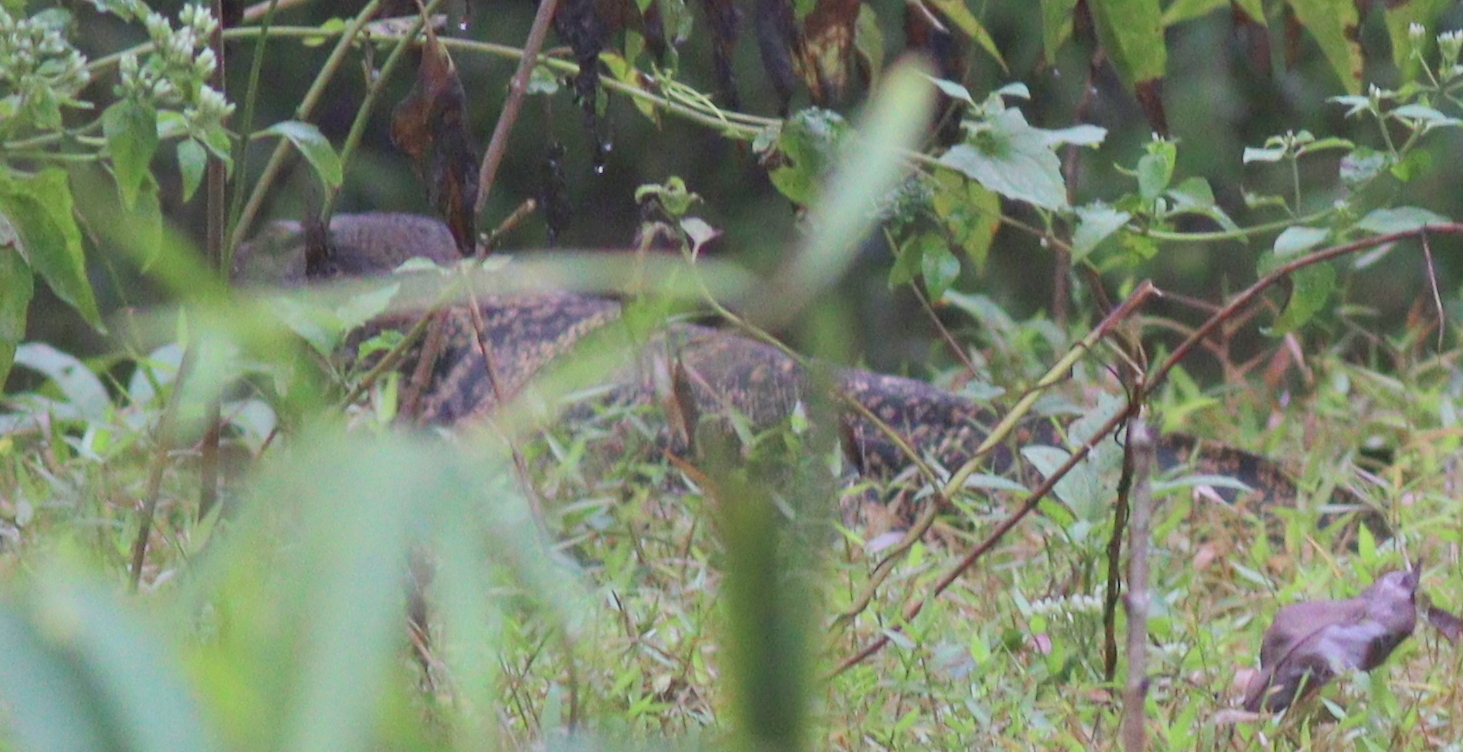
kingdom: Animalia
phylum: Chordata
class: Squamata
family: Varanidae
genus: Varanus
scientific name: Varanus salvator
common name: Common water monitor
